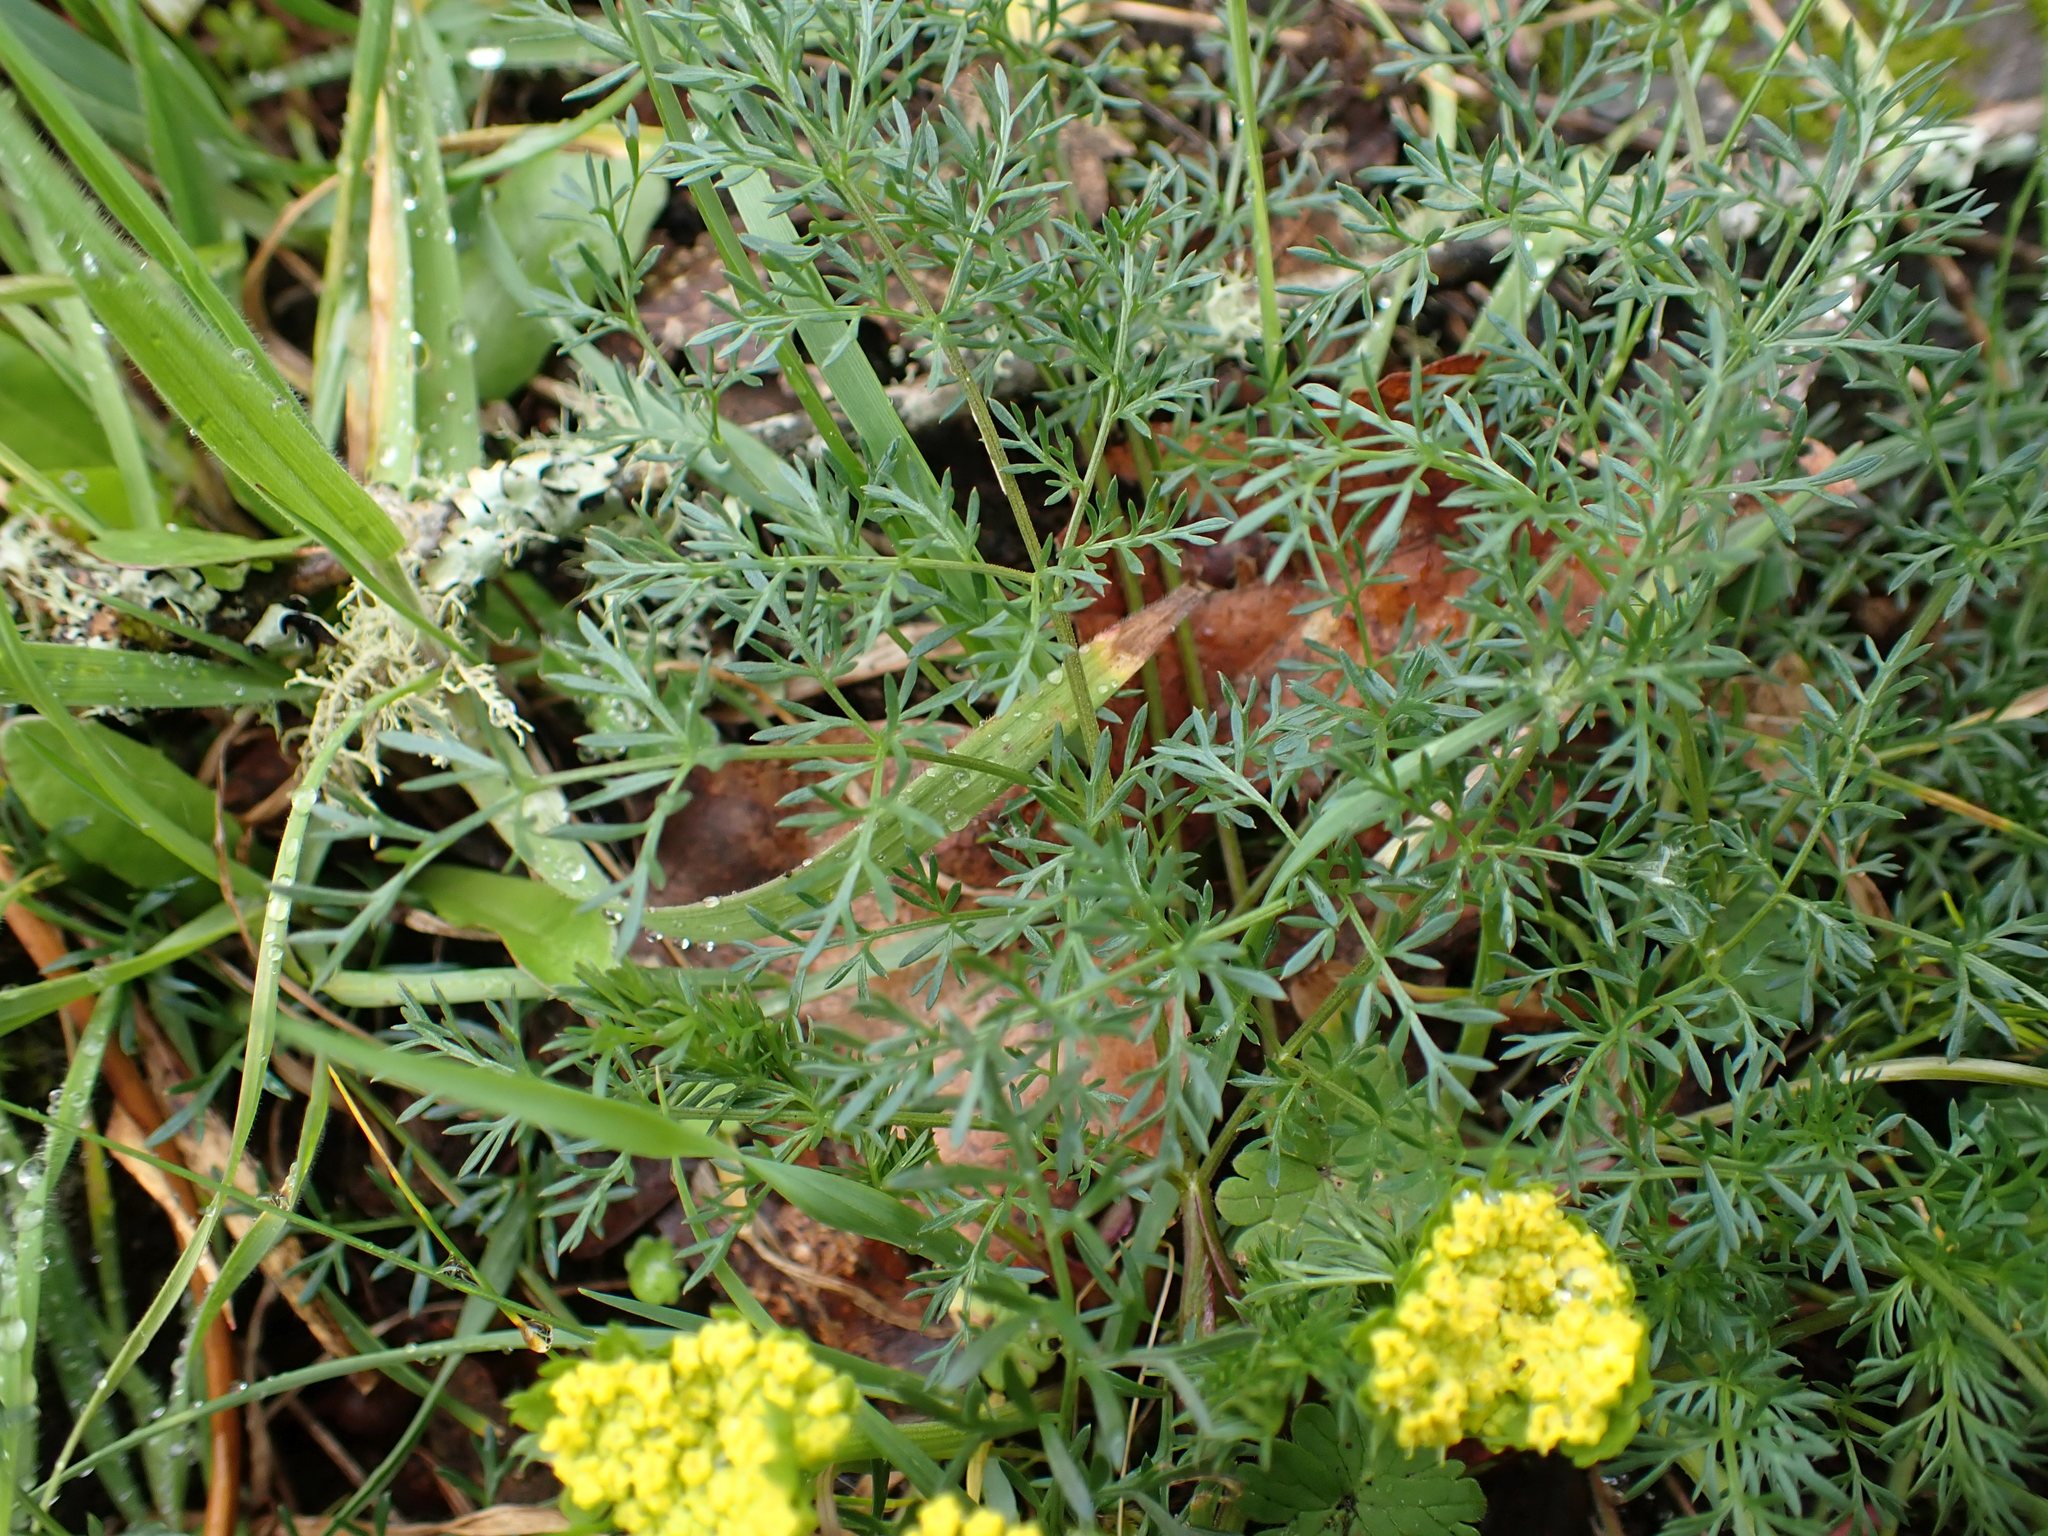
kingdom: Plantae
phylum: Tracheophyta
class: Magnoliopsida
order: Apiales
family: Apiaceae
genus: Lomatium
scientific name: Lomatium utriculatum
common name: Fine-leaf desert-parsley
